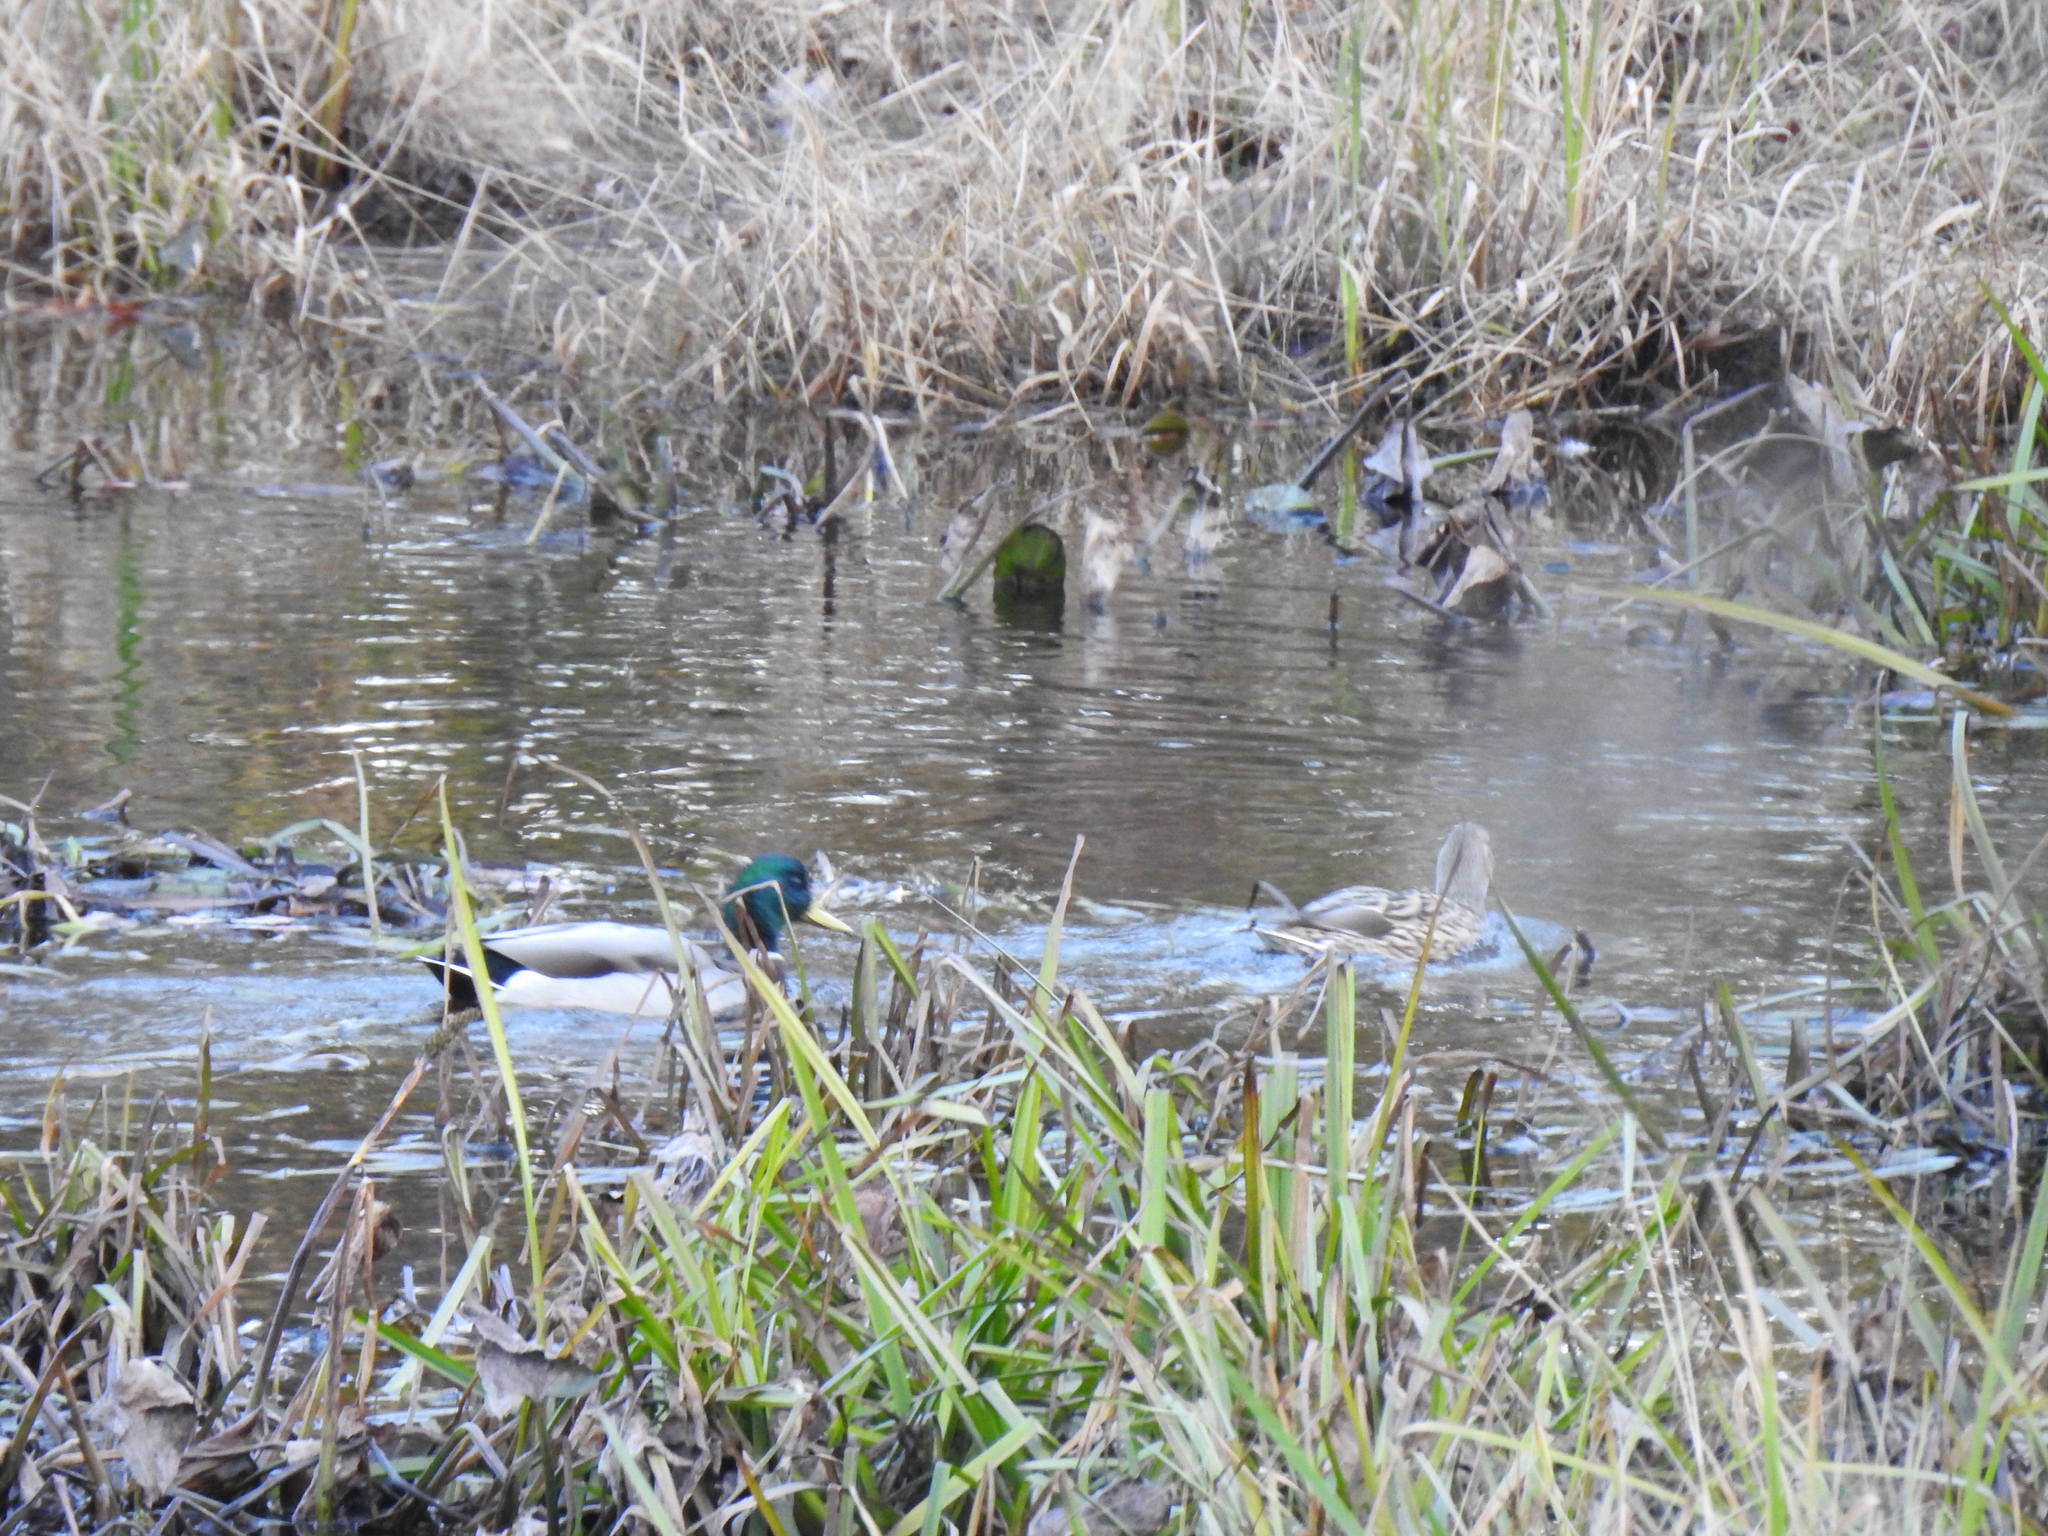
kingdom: Animalia
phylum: Chordata
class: Aves
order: Anseriformes
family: Anatidae
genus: Anas
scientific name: Anas platyrhynchos
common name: Mallard
